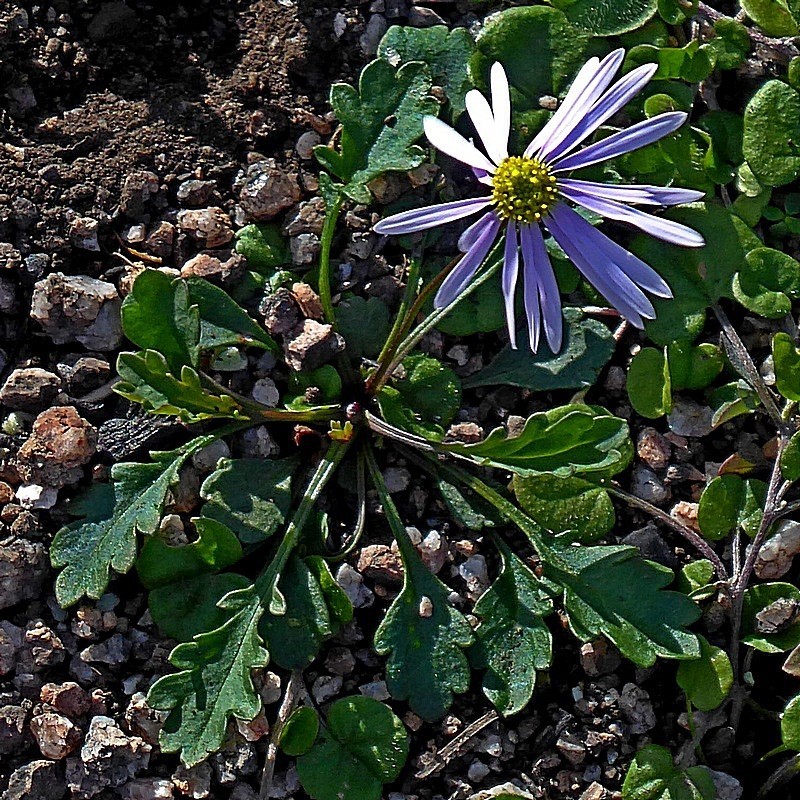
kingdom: Plantae
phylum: Tracheophyta
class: Magnoliopsida
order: Asterales
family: Asteraceae
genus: Brachyscome
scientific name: Brachyscome salkiniae
